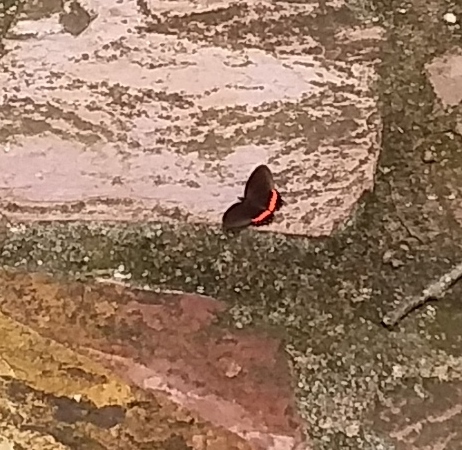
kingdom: Animalia
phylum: Arthropoda
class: Insecta
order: Lepidoptera
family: Nymphalidae
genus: Biblis
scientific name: Biblis aganisa
